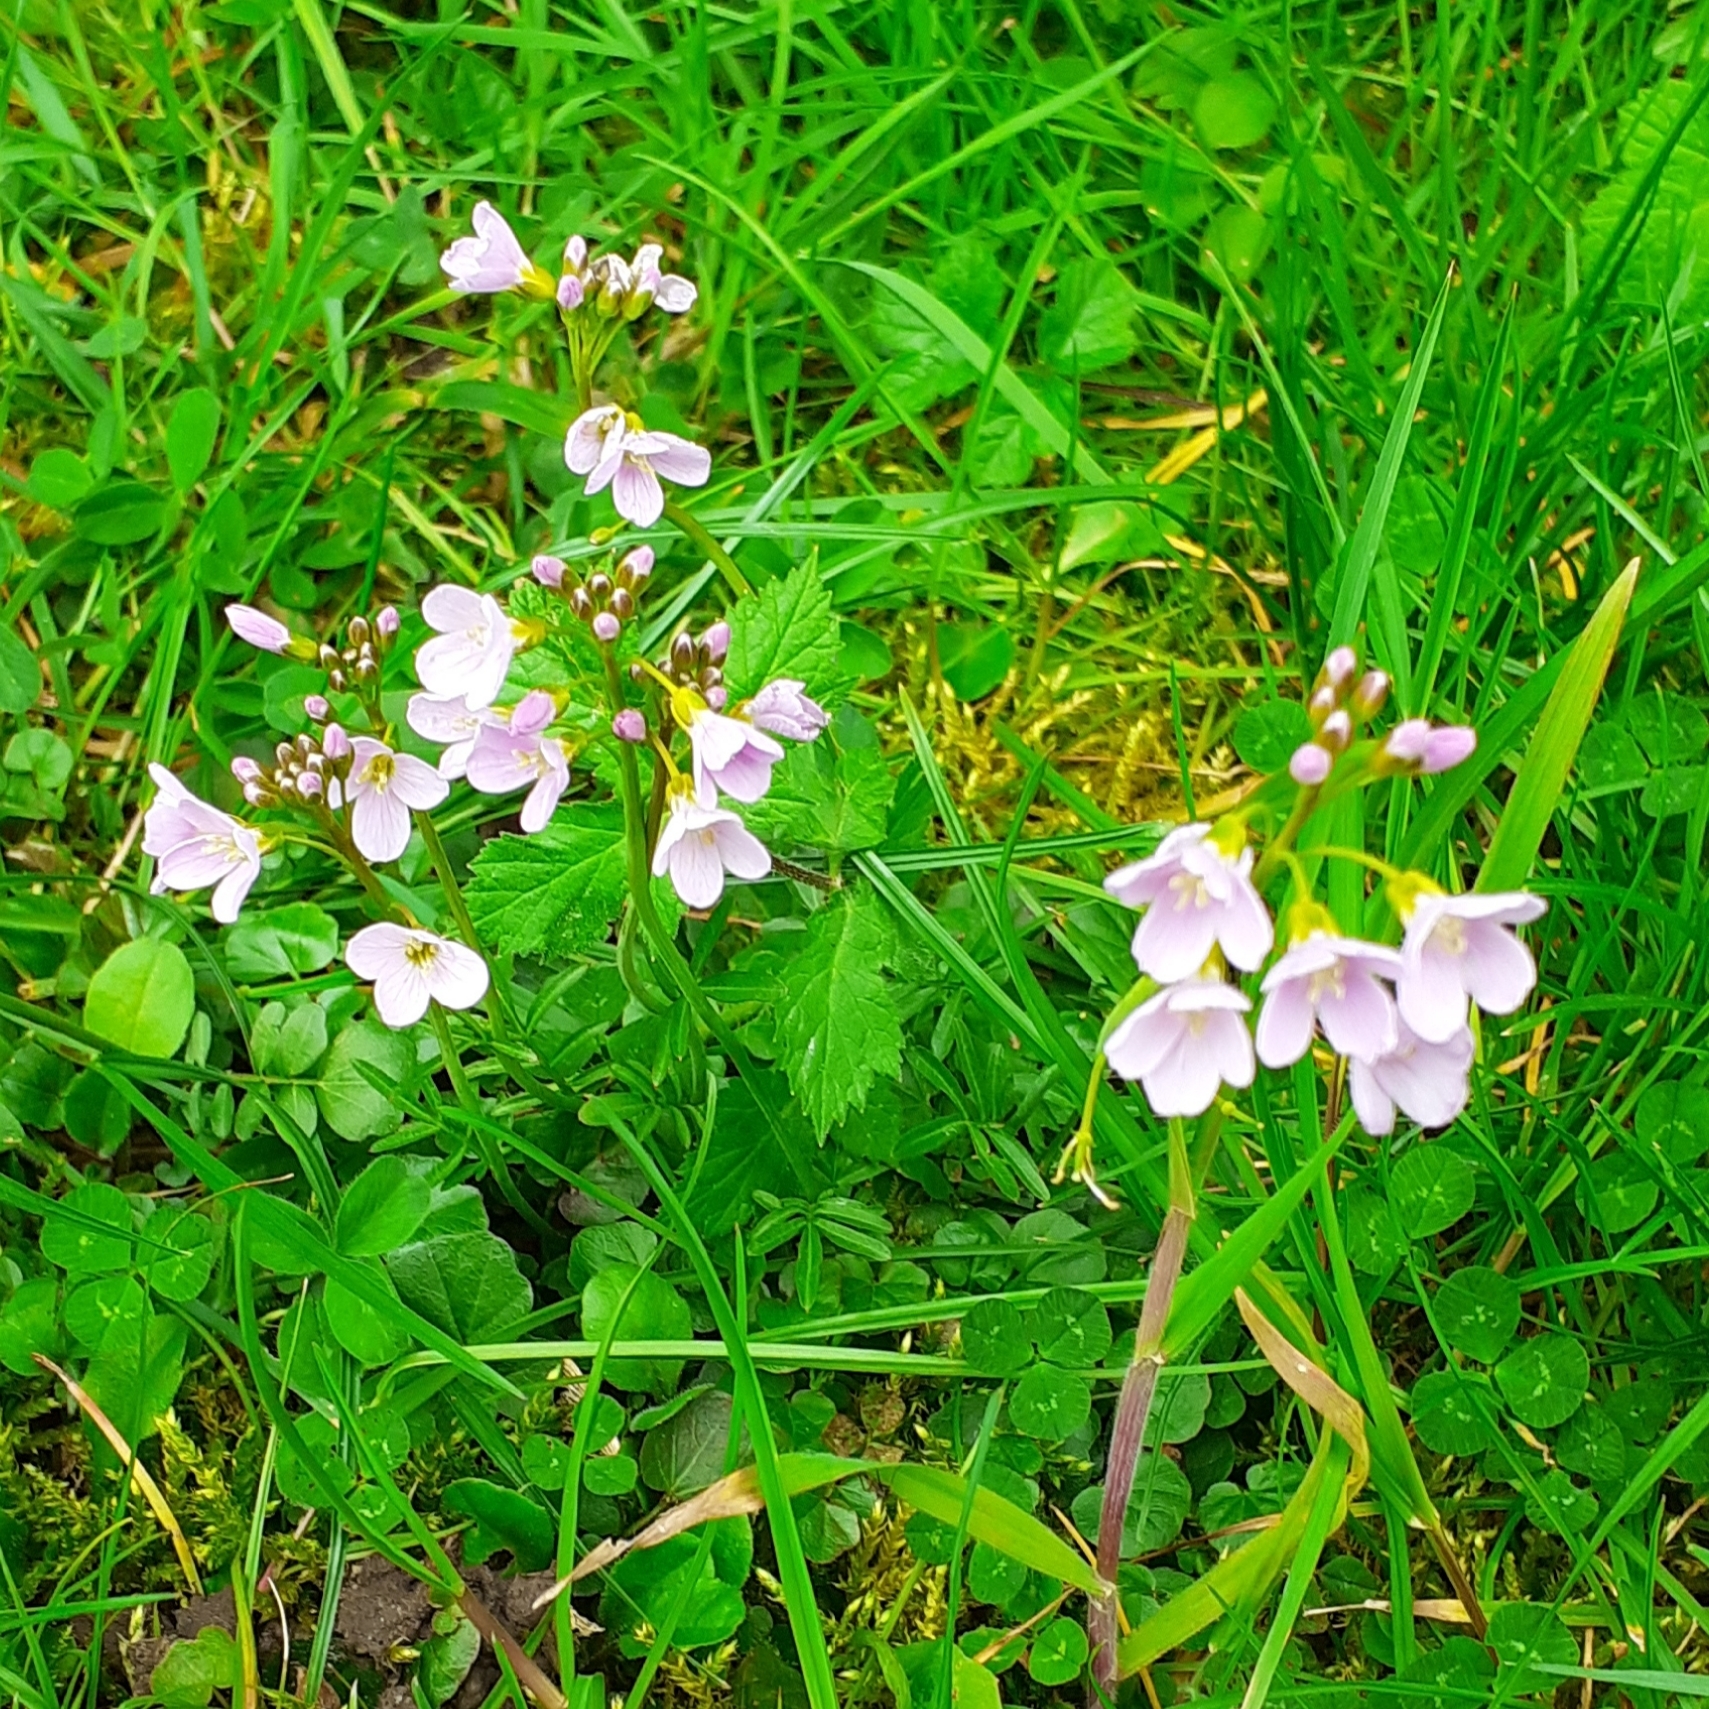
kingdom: Plantae
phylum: Tracheophyta
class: Magnoliopsida
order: Brassicales
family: Brassicaceae
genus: Cardamine
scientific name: Cardamine pratensis
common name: Cuckoo flower
